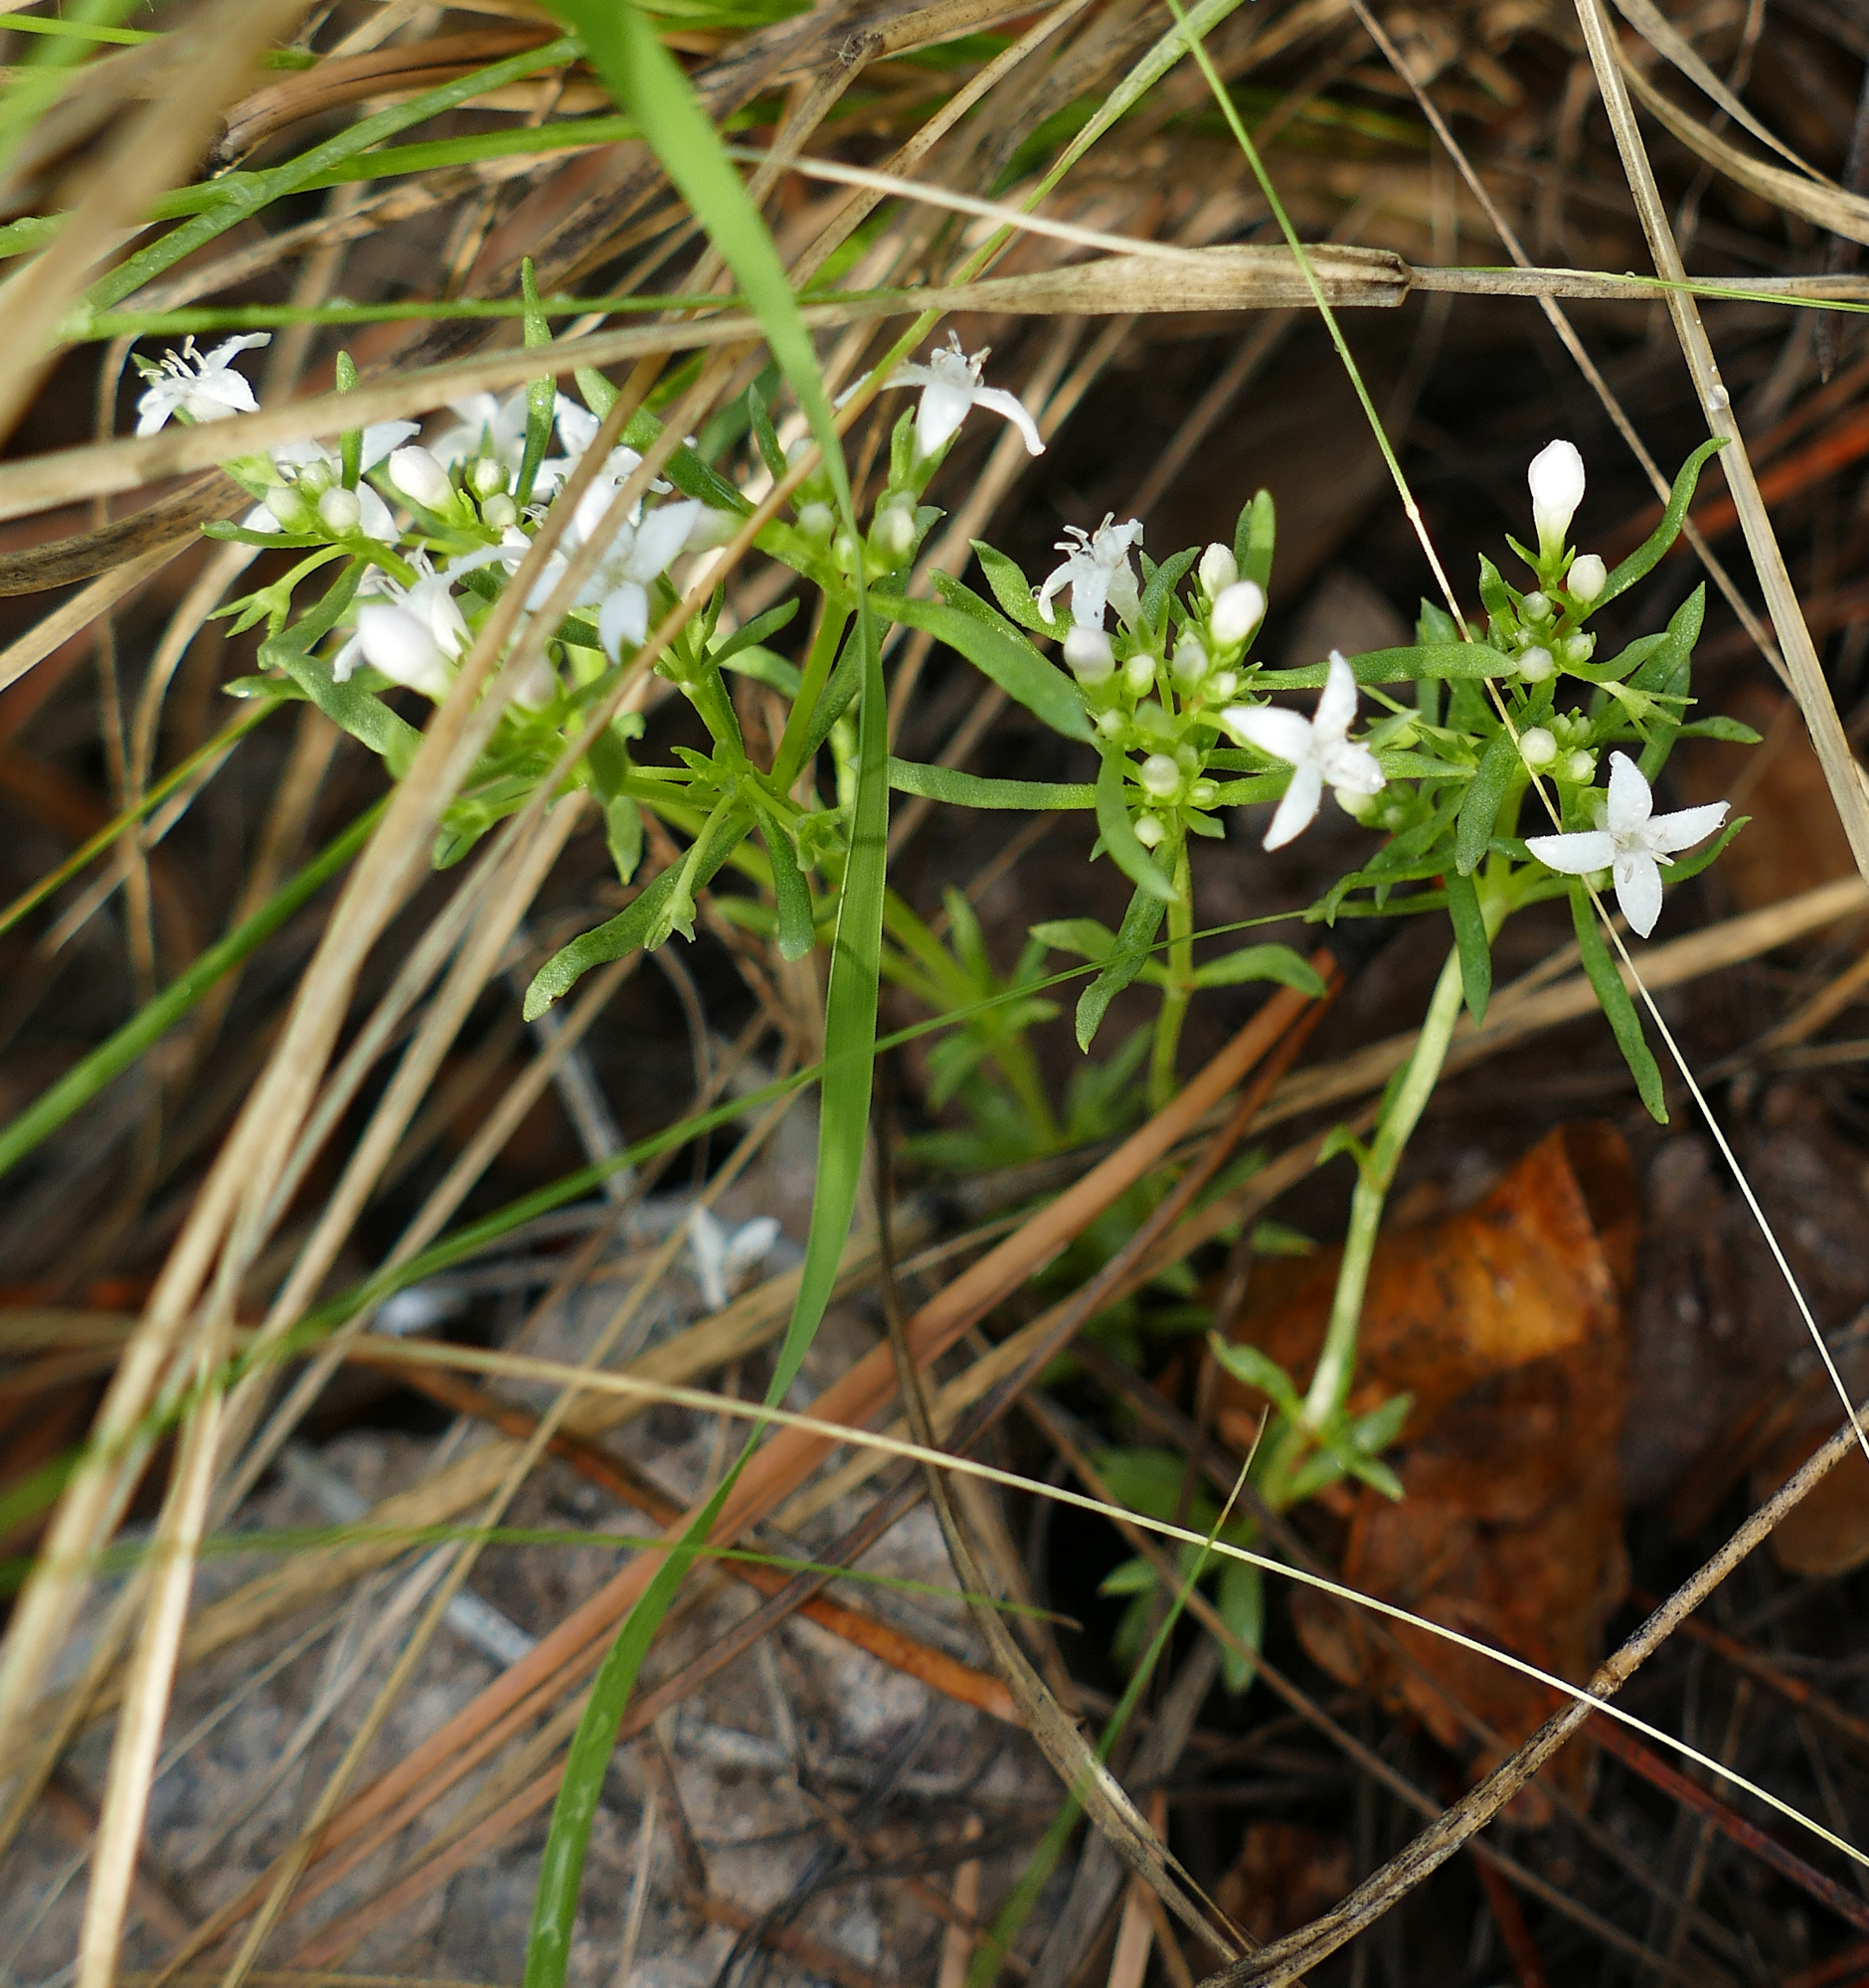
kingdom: Plantae
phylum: Tracheophyta
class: Magnoliopsida
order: Gentianales
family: Rubiaceae
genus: Houstonia
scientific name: Houstonia wrightii
